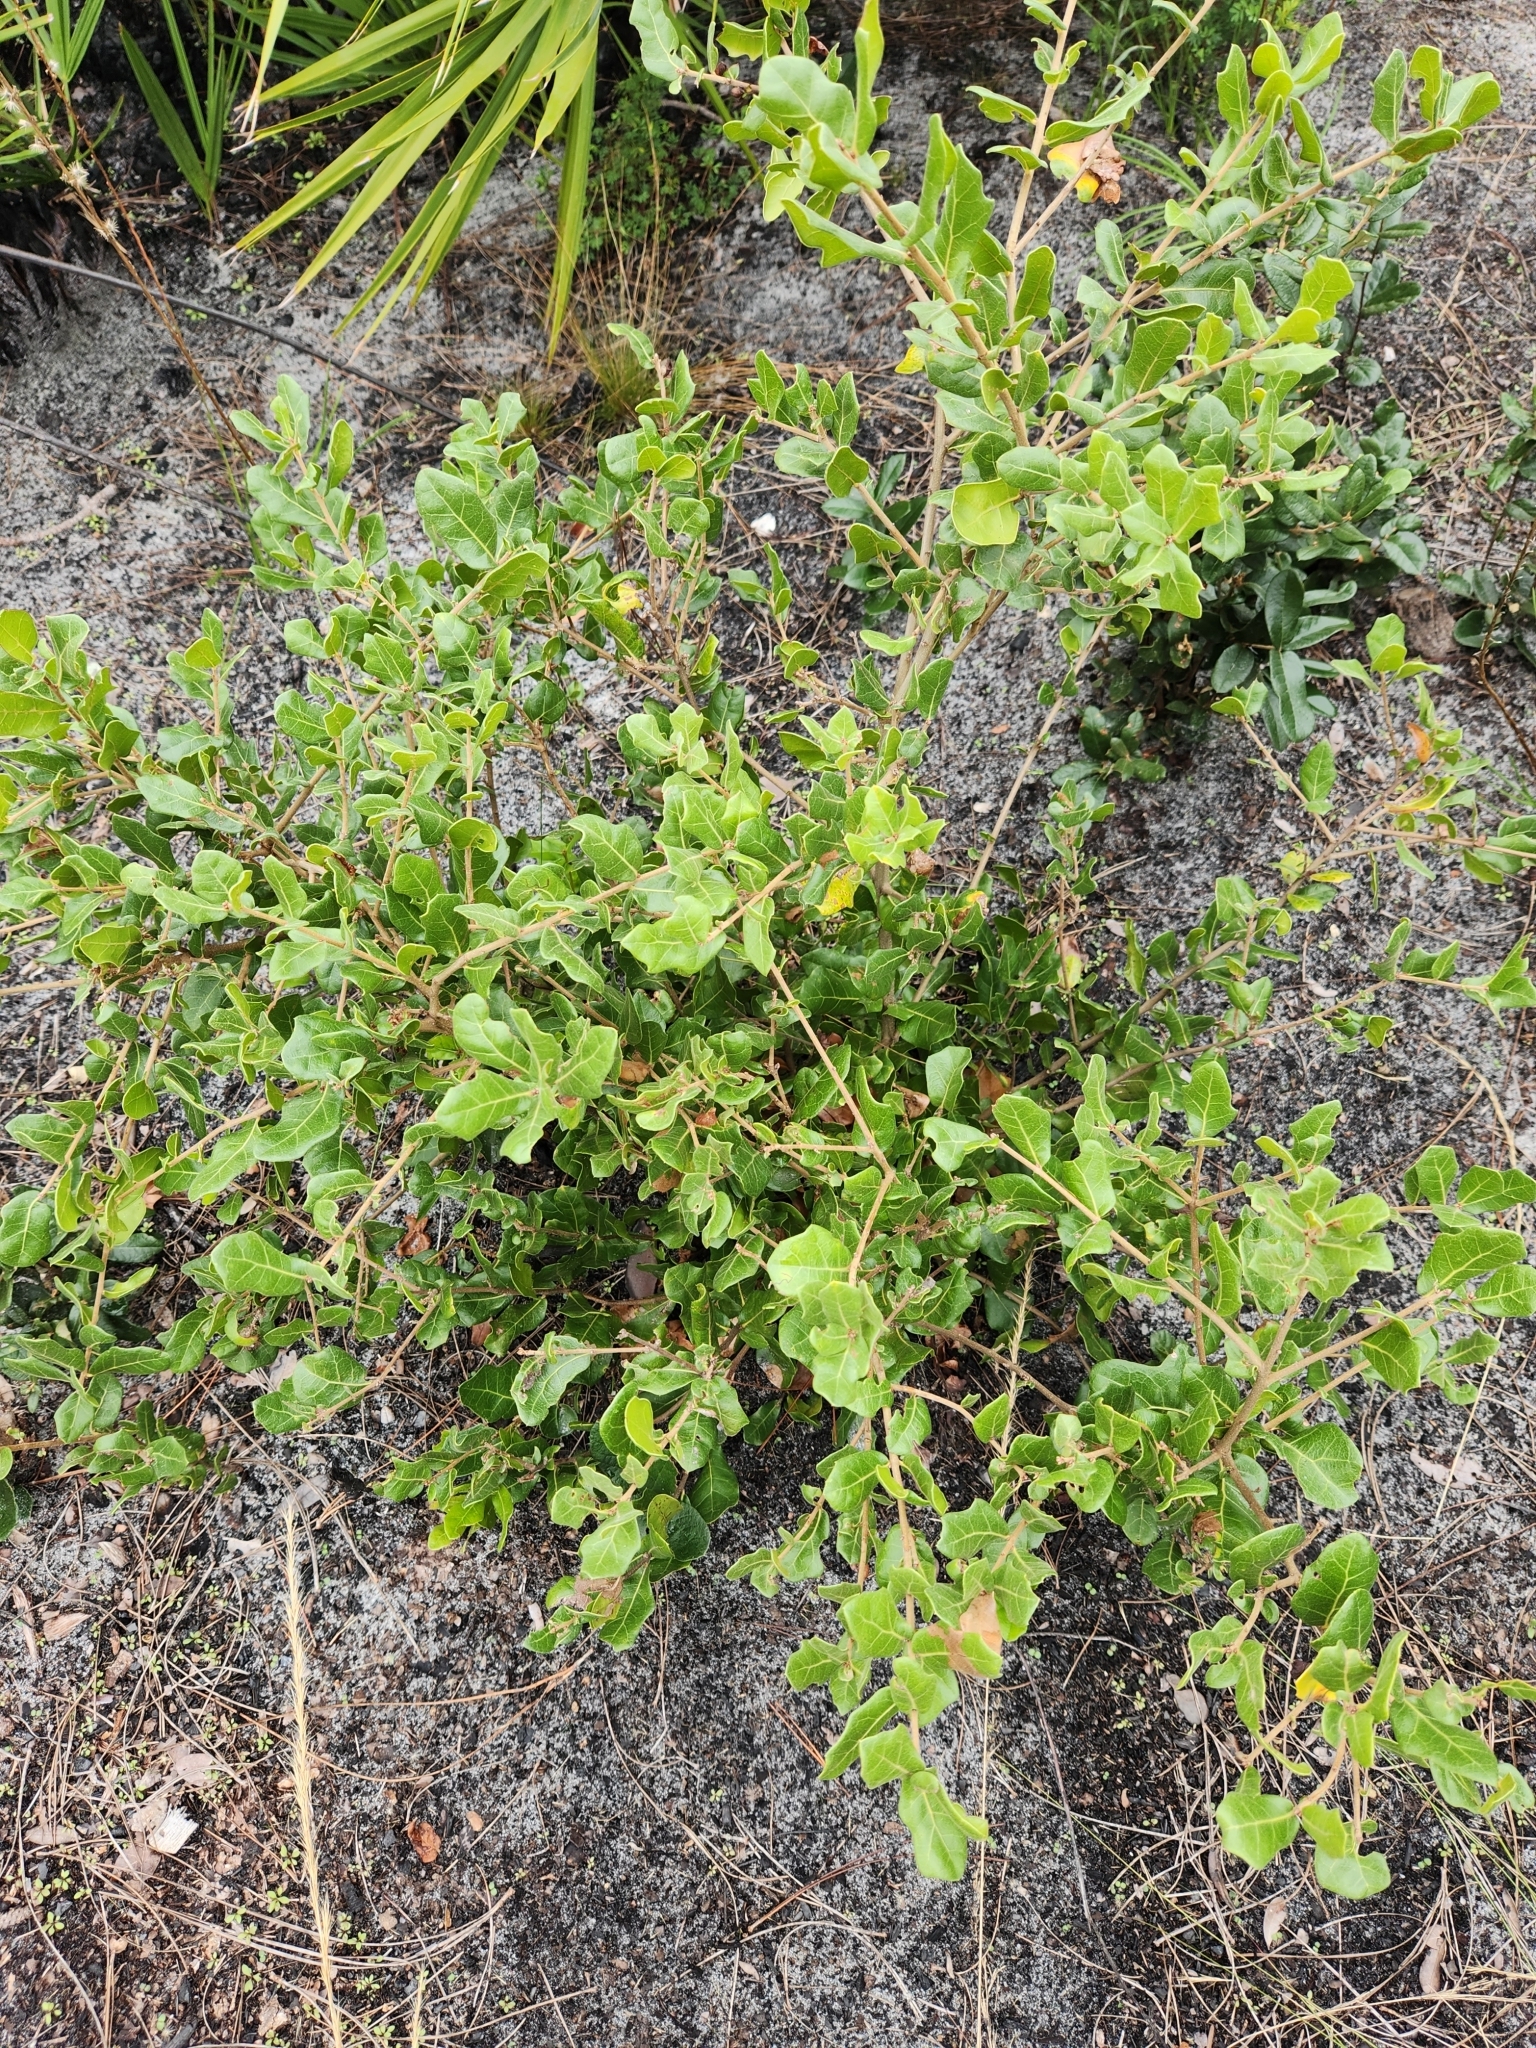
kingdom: Plantae
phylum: Tracheophyta
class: Magnoliopsida
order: Fagales
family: Fagaceae
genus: Quercus
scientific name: Quercus myrtifolia
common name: Myrtle oak
